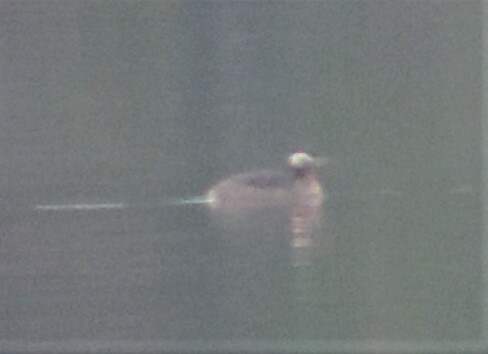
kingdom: Animalia
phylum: Chordata
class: Aves
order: Podicipediformes
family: Podicipedidae
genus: Podiceps
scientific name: Podiceps grisegena
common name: Red-necked grebe
